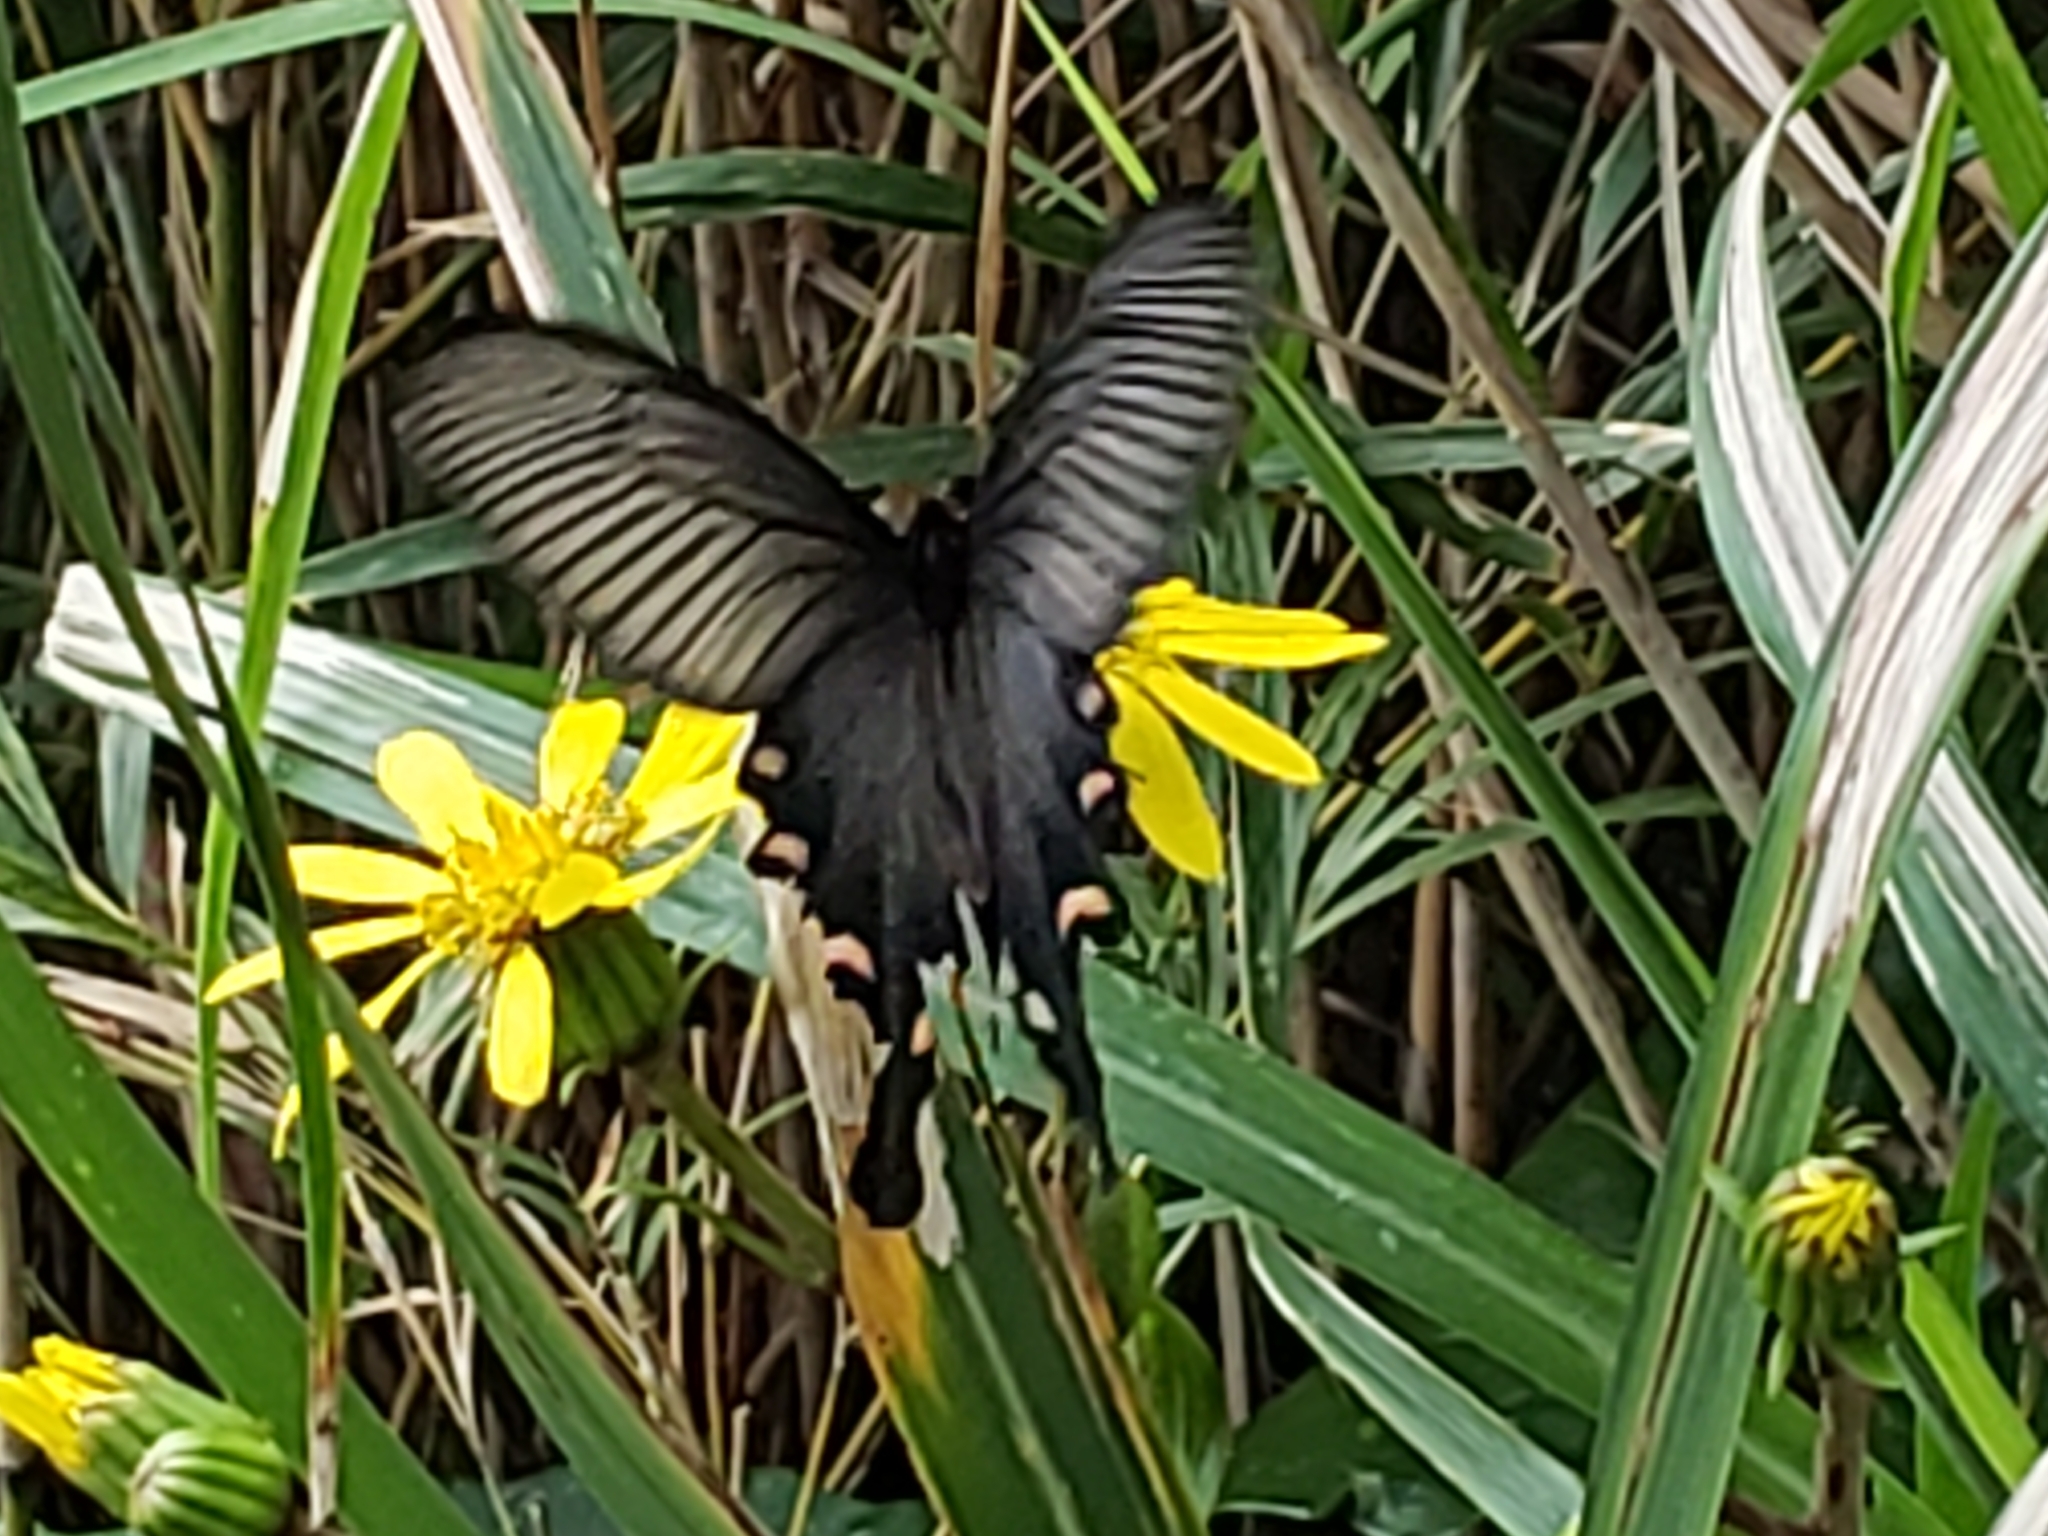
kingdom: Animalia
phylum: Arthropoda
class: Insecta
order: Lepidoptera
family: Papilionidae
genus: Byasa
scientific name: Byasa alcinous
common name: Chinese windmill
